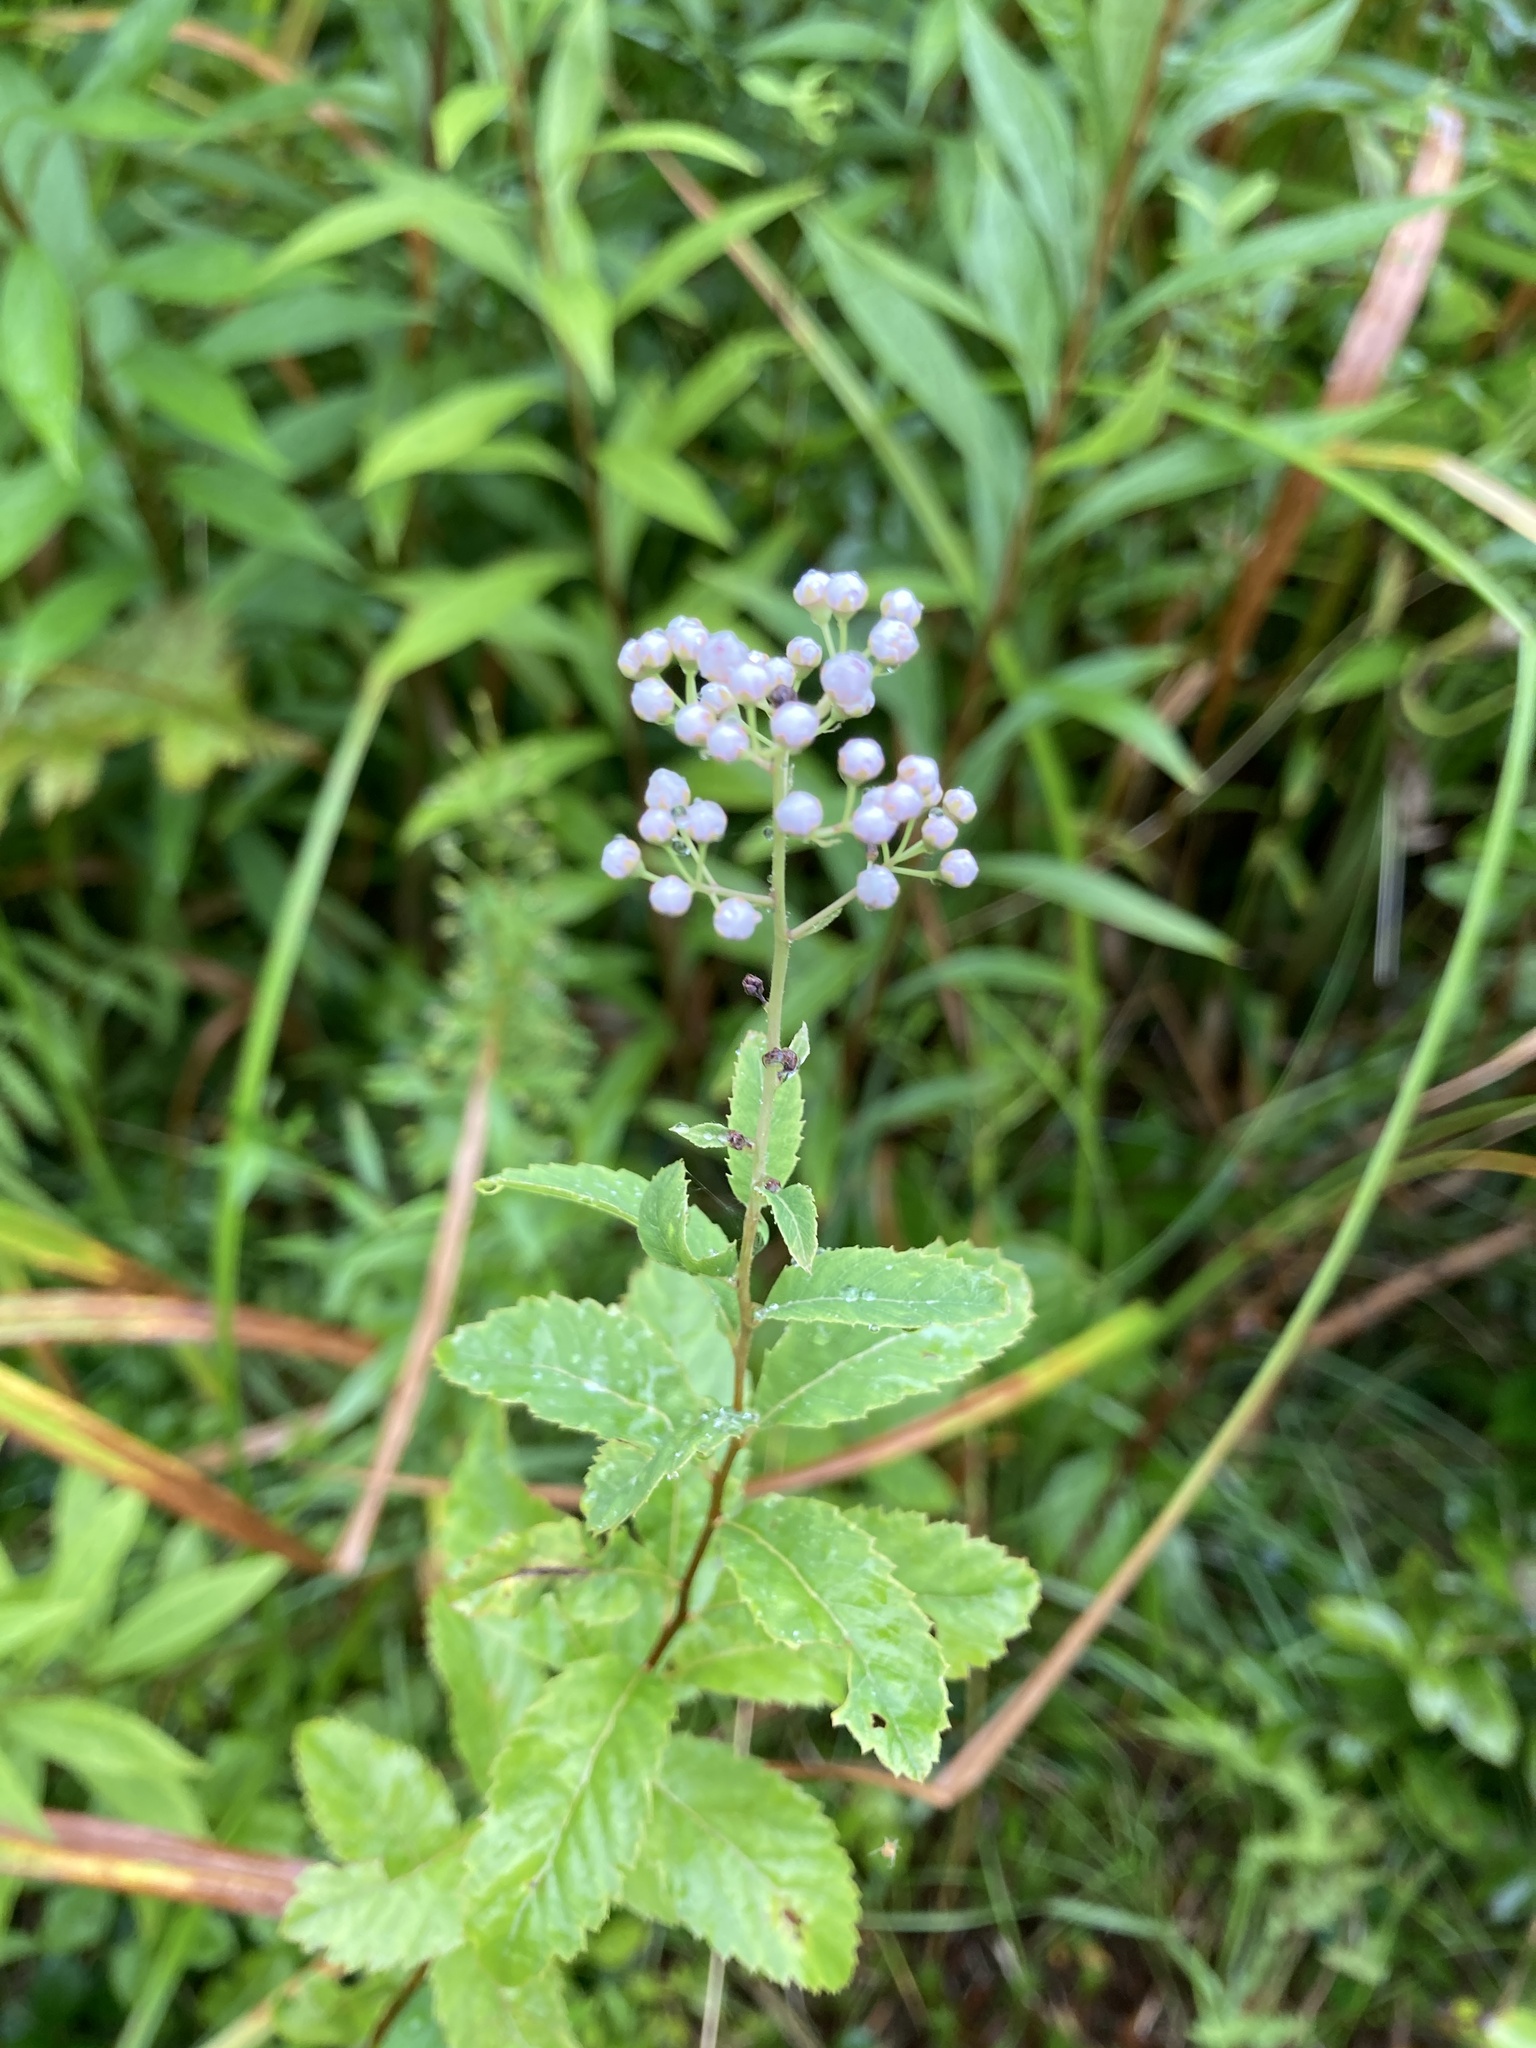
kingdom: Plantae
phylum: Tracheophyta
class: Magnoliopsida
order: Rosales
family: Rosaceae
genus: Spiraea
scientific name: Spiraea alba
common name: Pale bridewort
